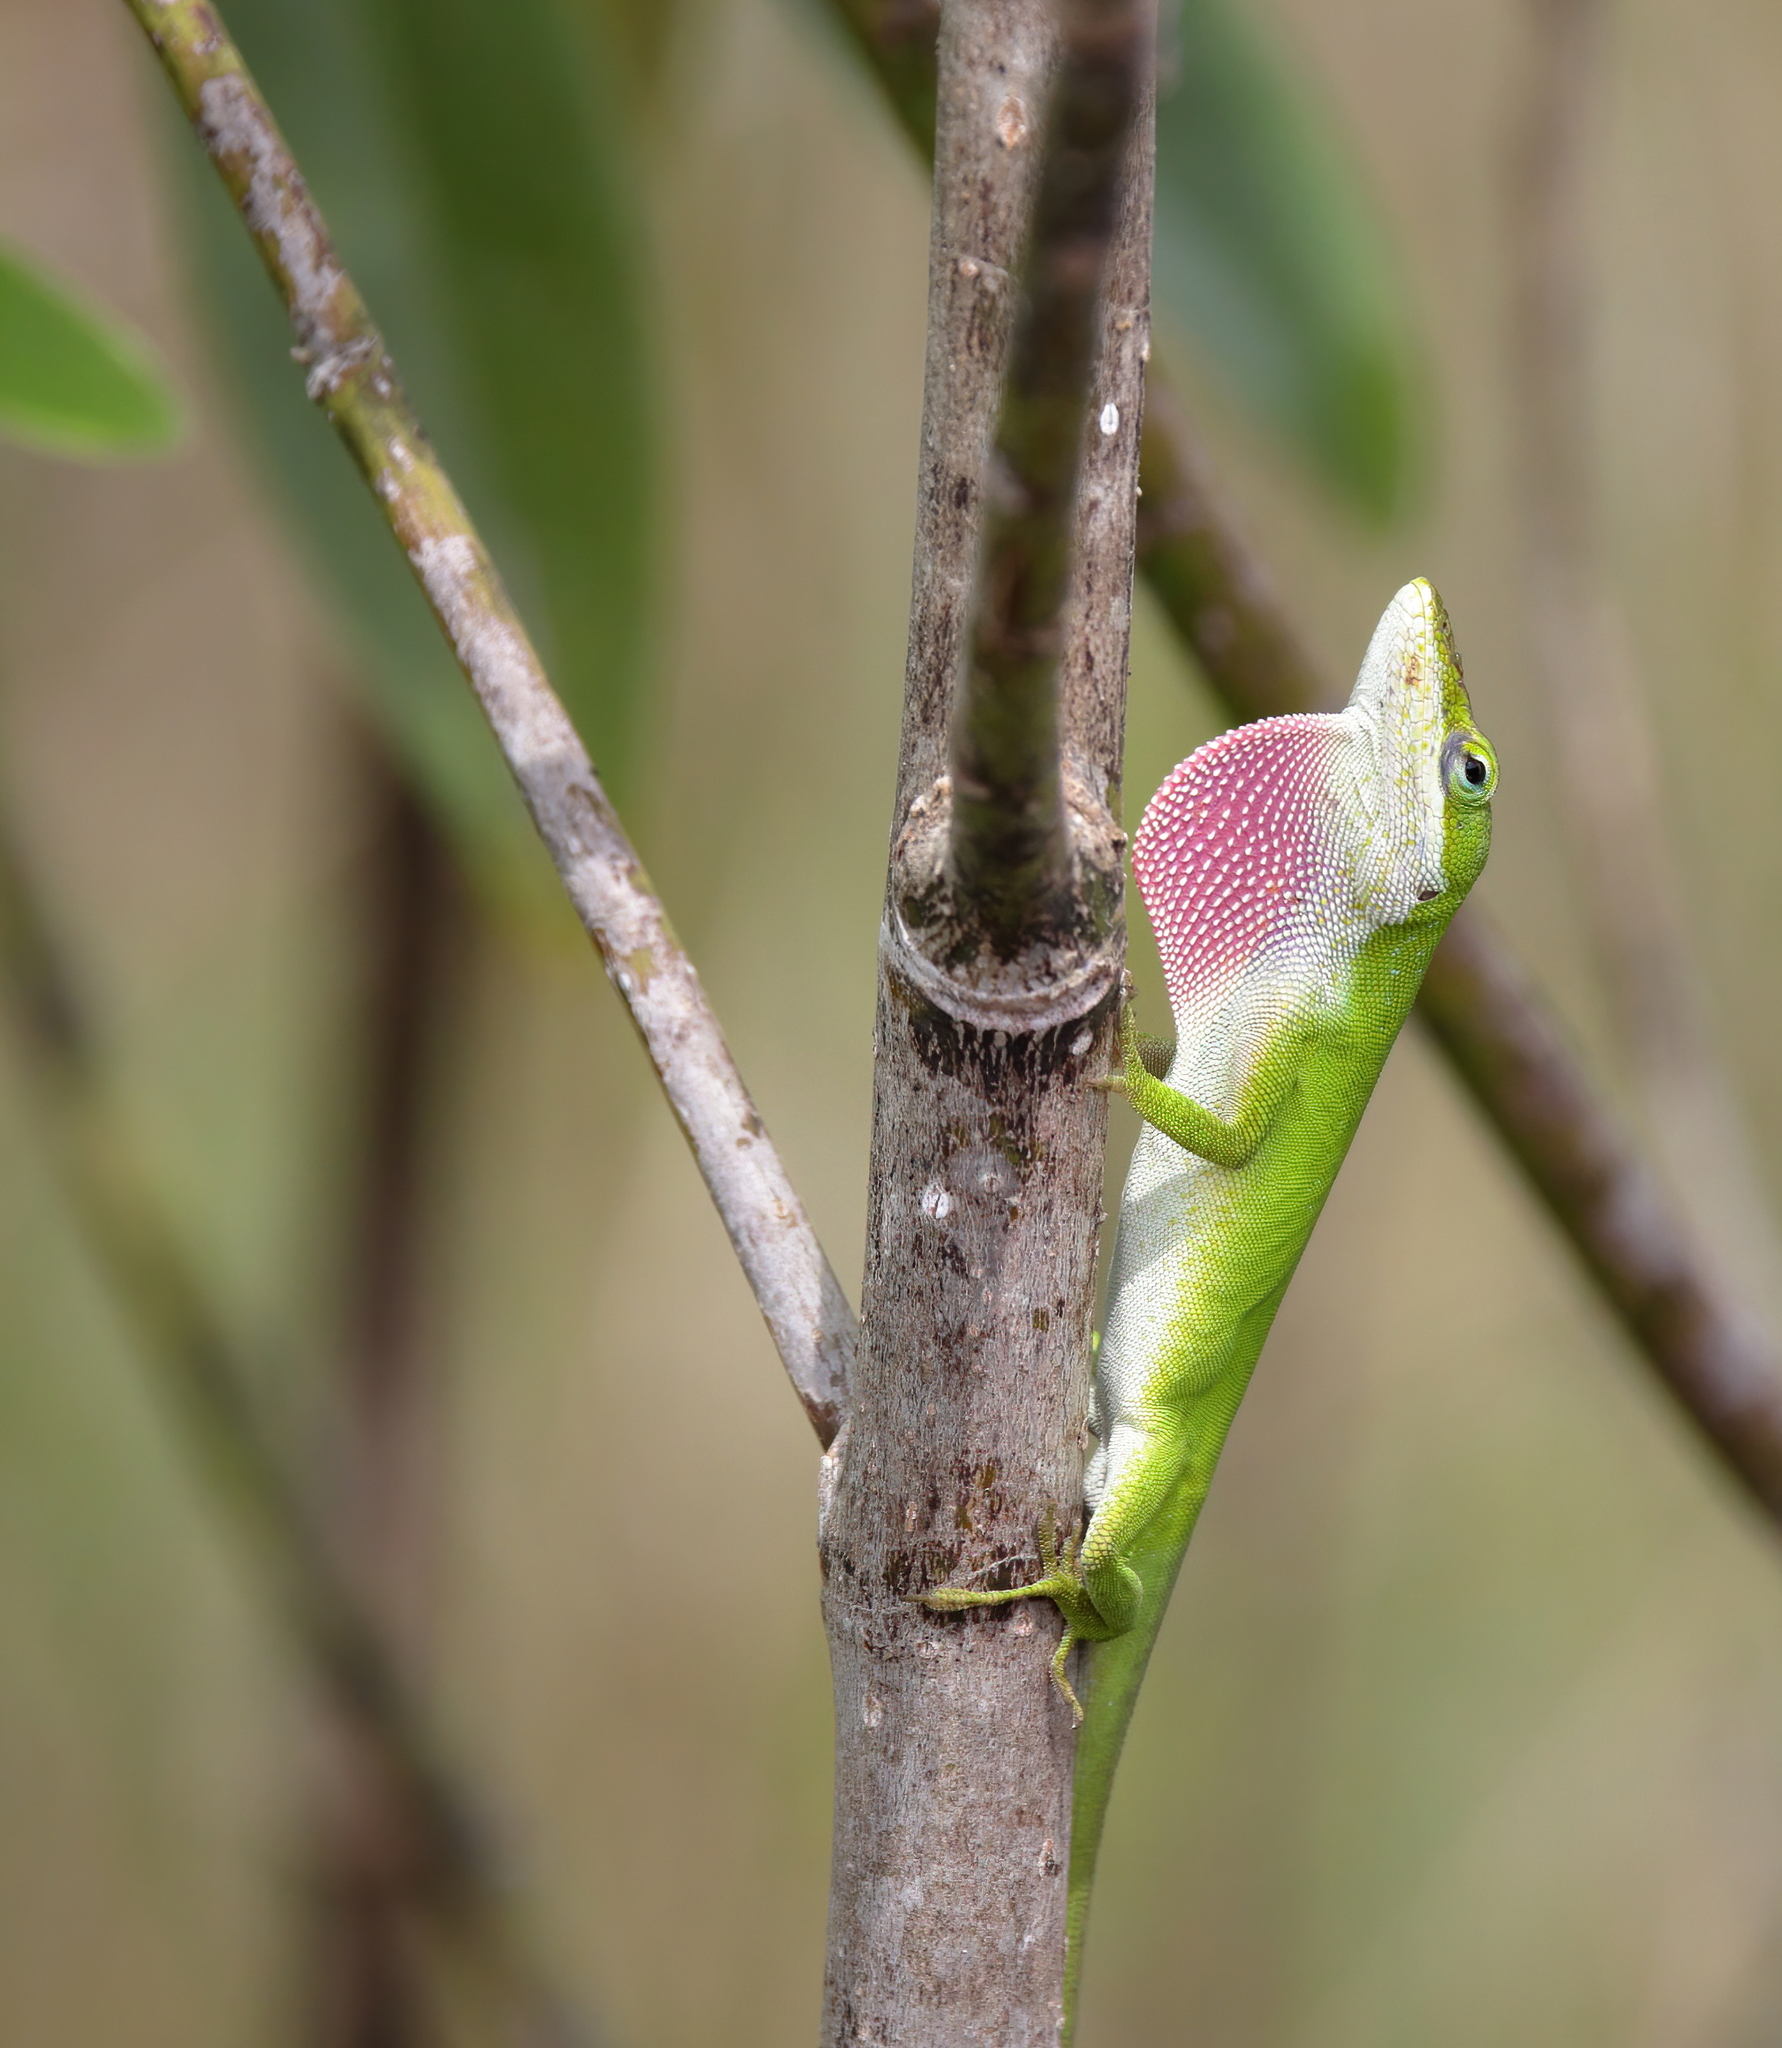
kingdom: Animalia
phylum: Chordata
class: Squamata
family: Dactyloidae
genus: Anolis
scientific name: Anolis carolinensis
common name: Green anole
